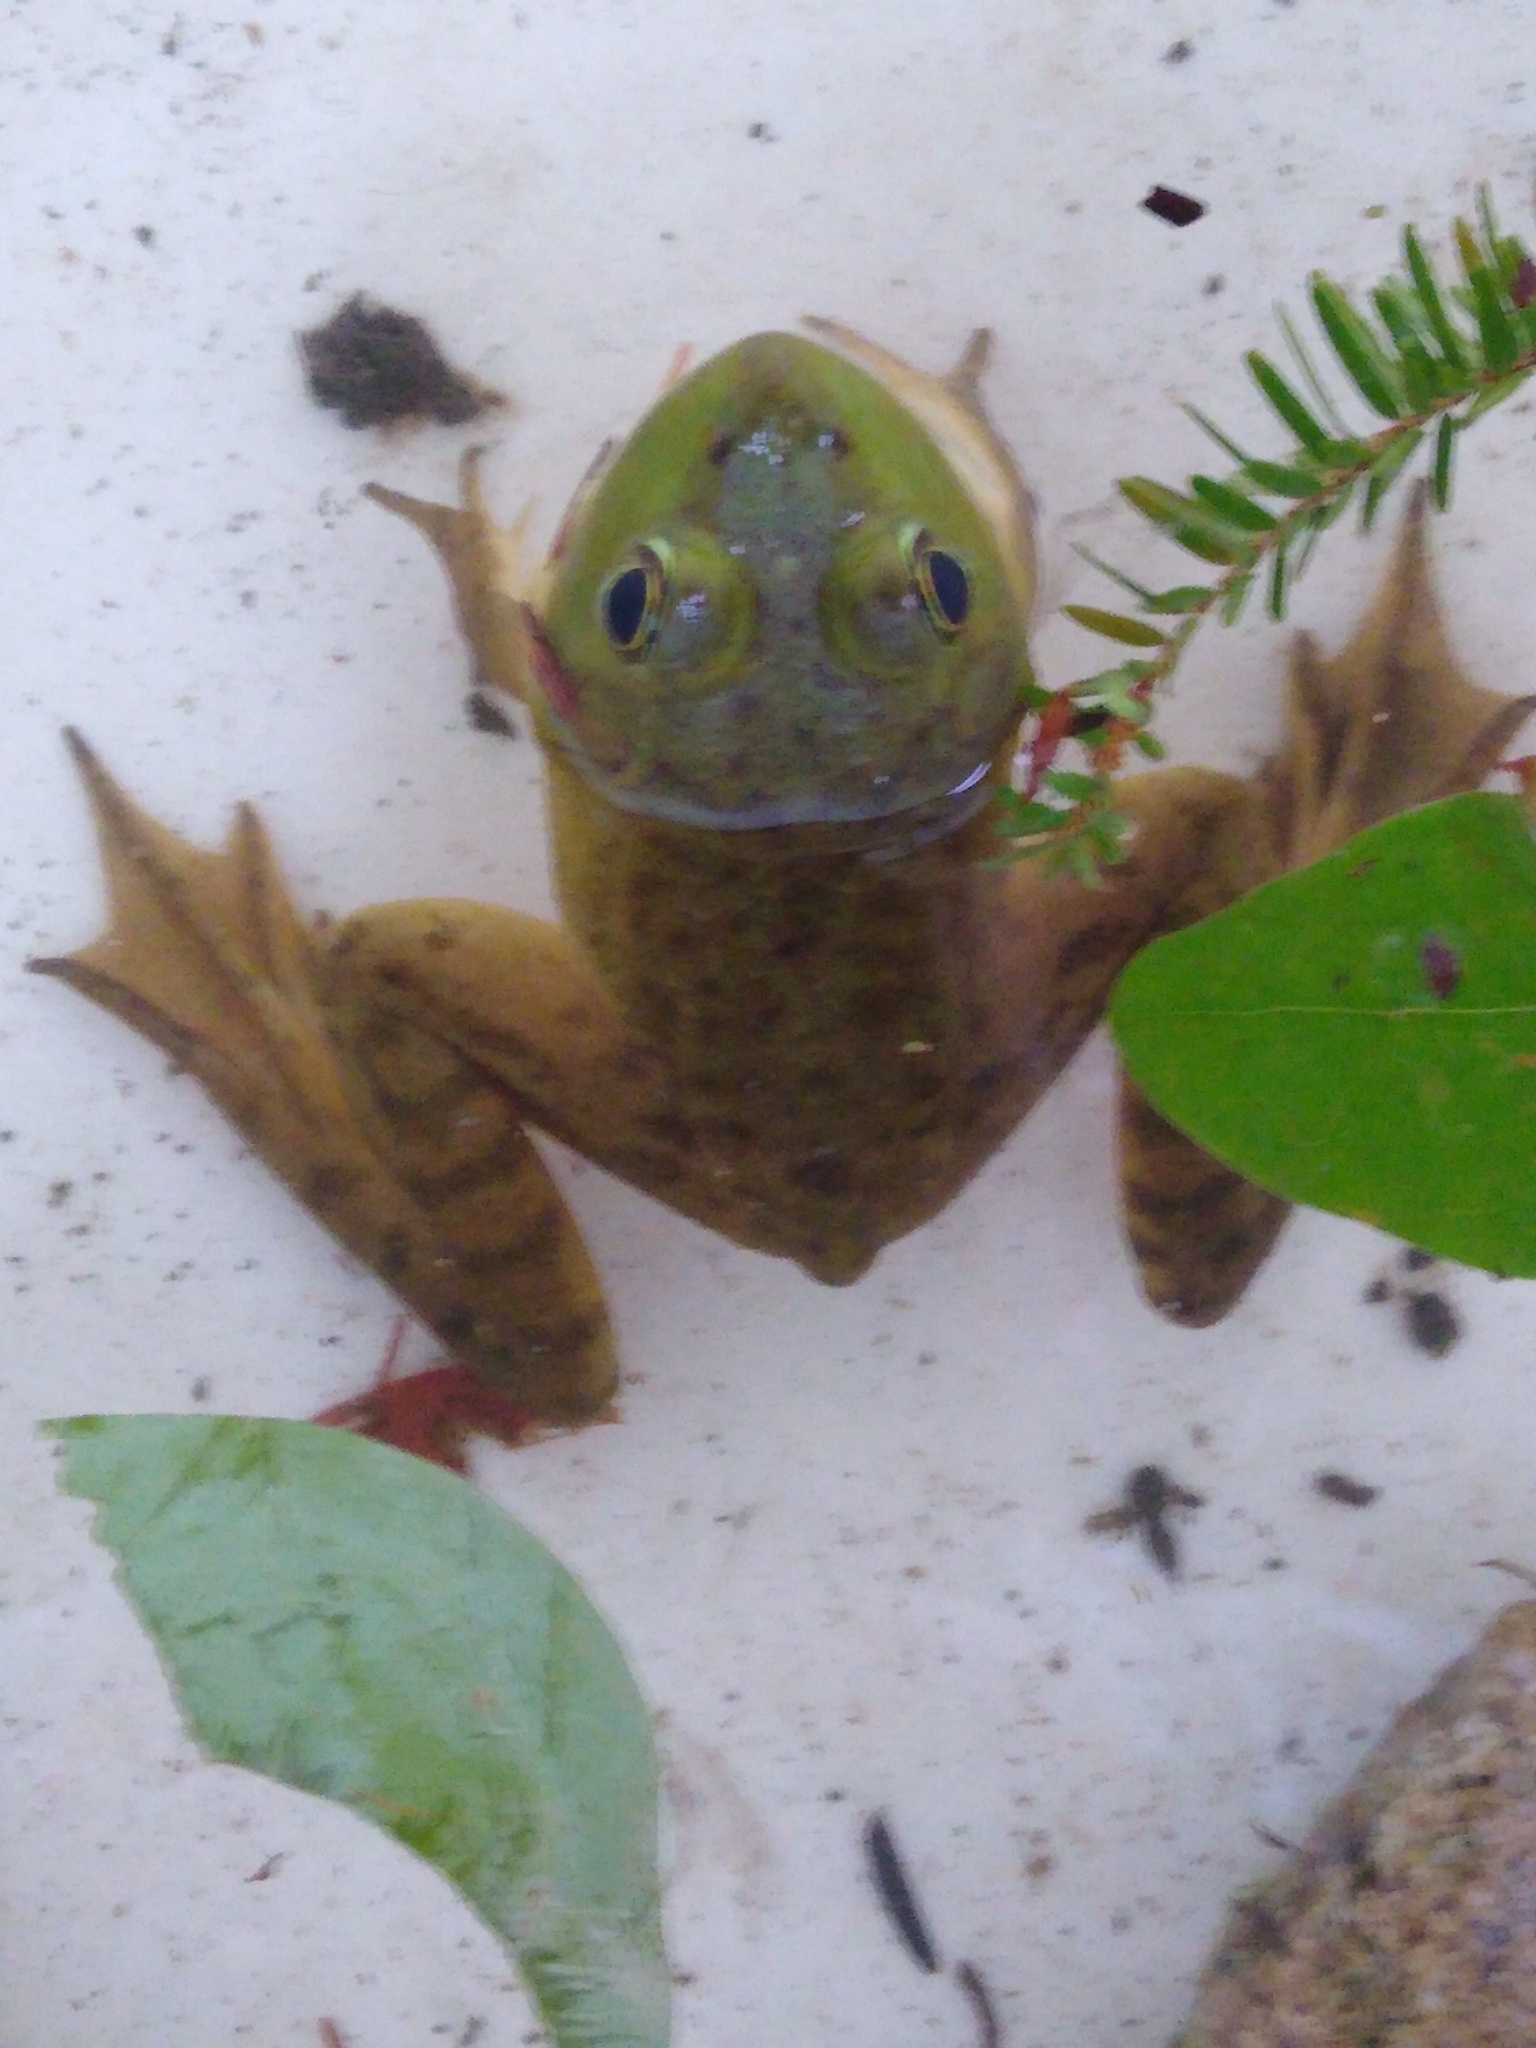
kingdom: Animalia
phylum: Chordata
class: Amphibia
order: Anura
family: Ranidae
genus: Lithobates
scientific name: Lithobates catesbeianus
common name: American bullfrog
